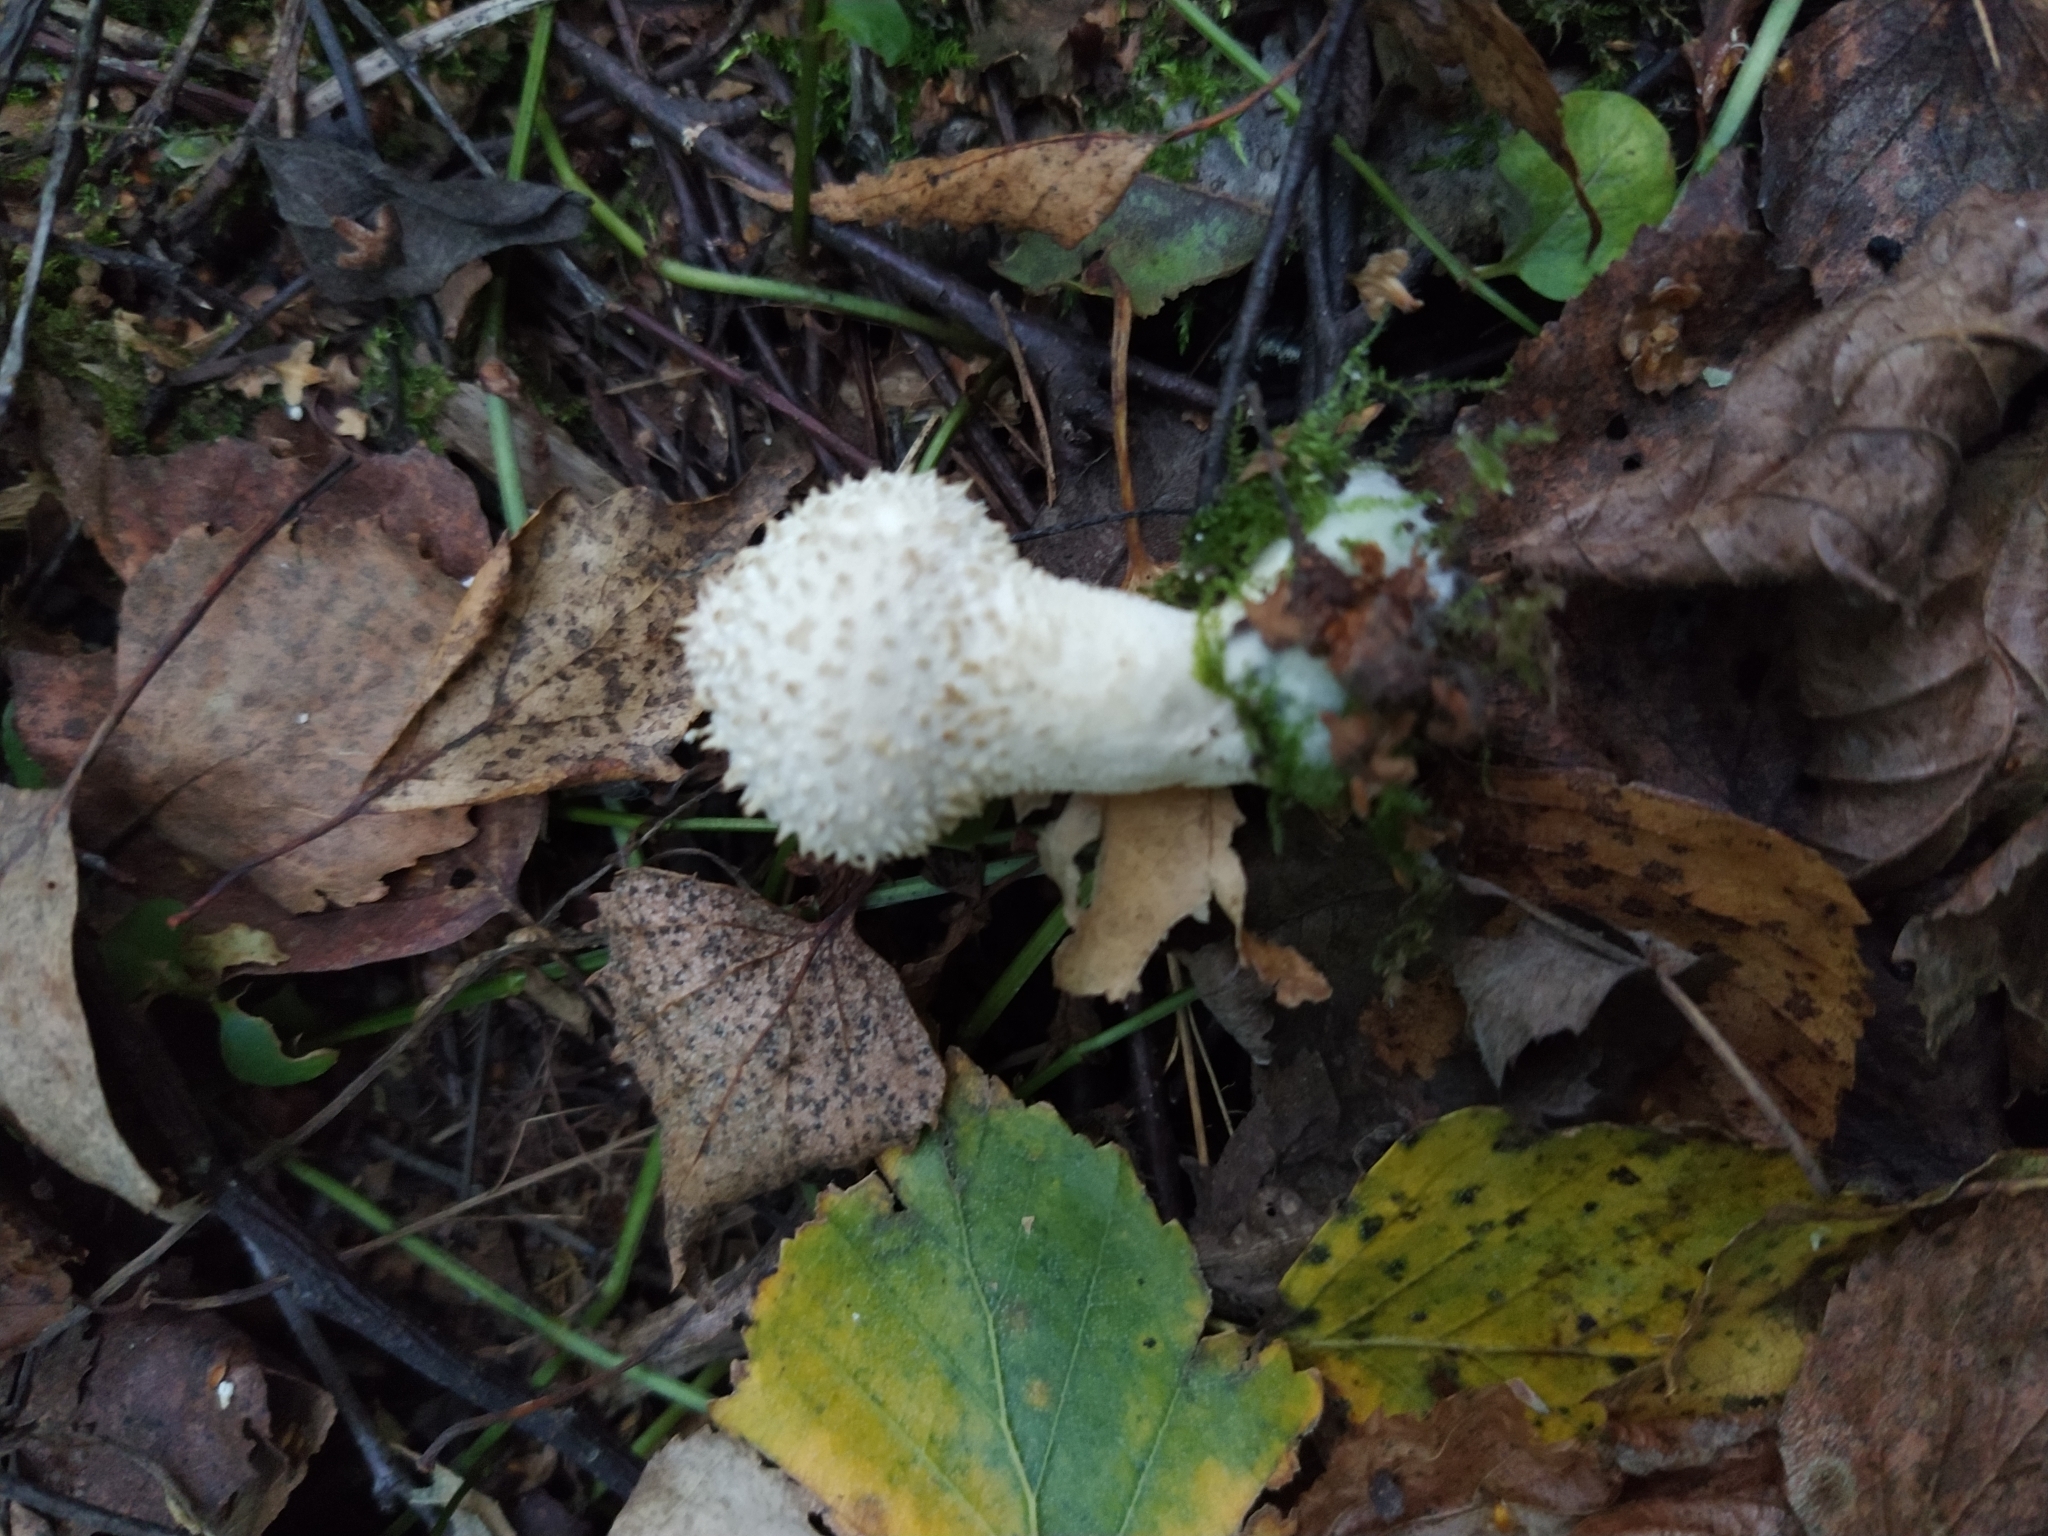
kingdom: Fungi
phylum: Basidiomycota
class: Agaricomycetes
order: Agaricales
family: Lycoperdaceae
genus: Lycoperdon
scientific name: Lycoperdon perlatum
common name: Common puffball
